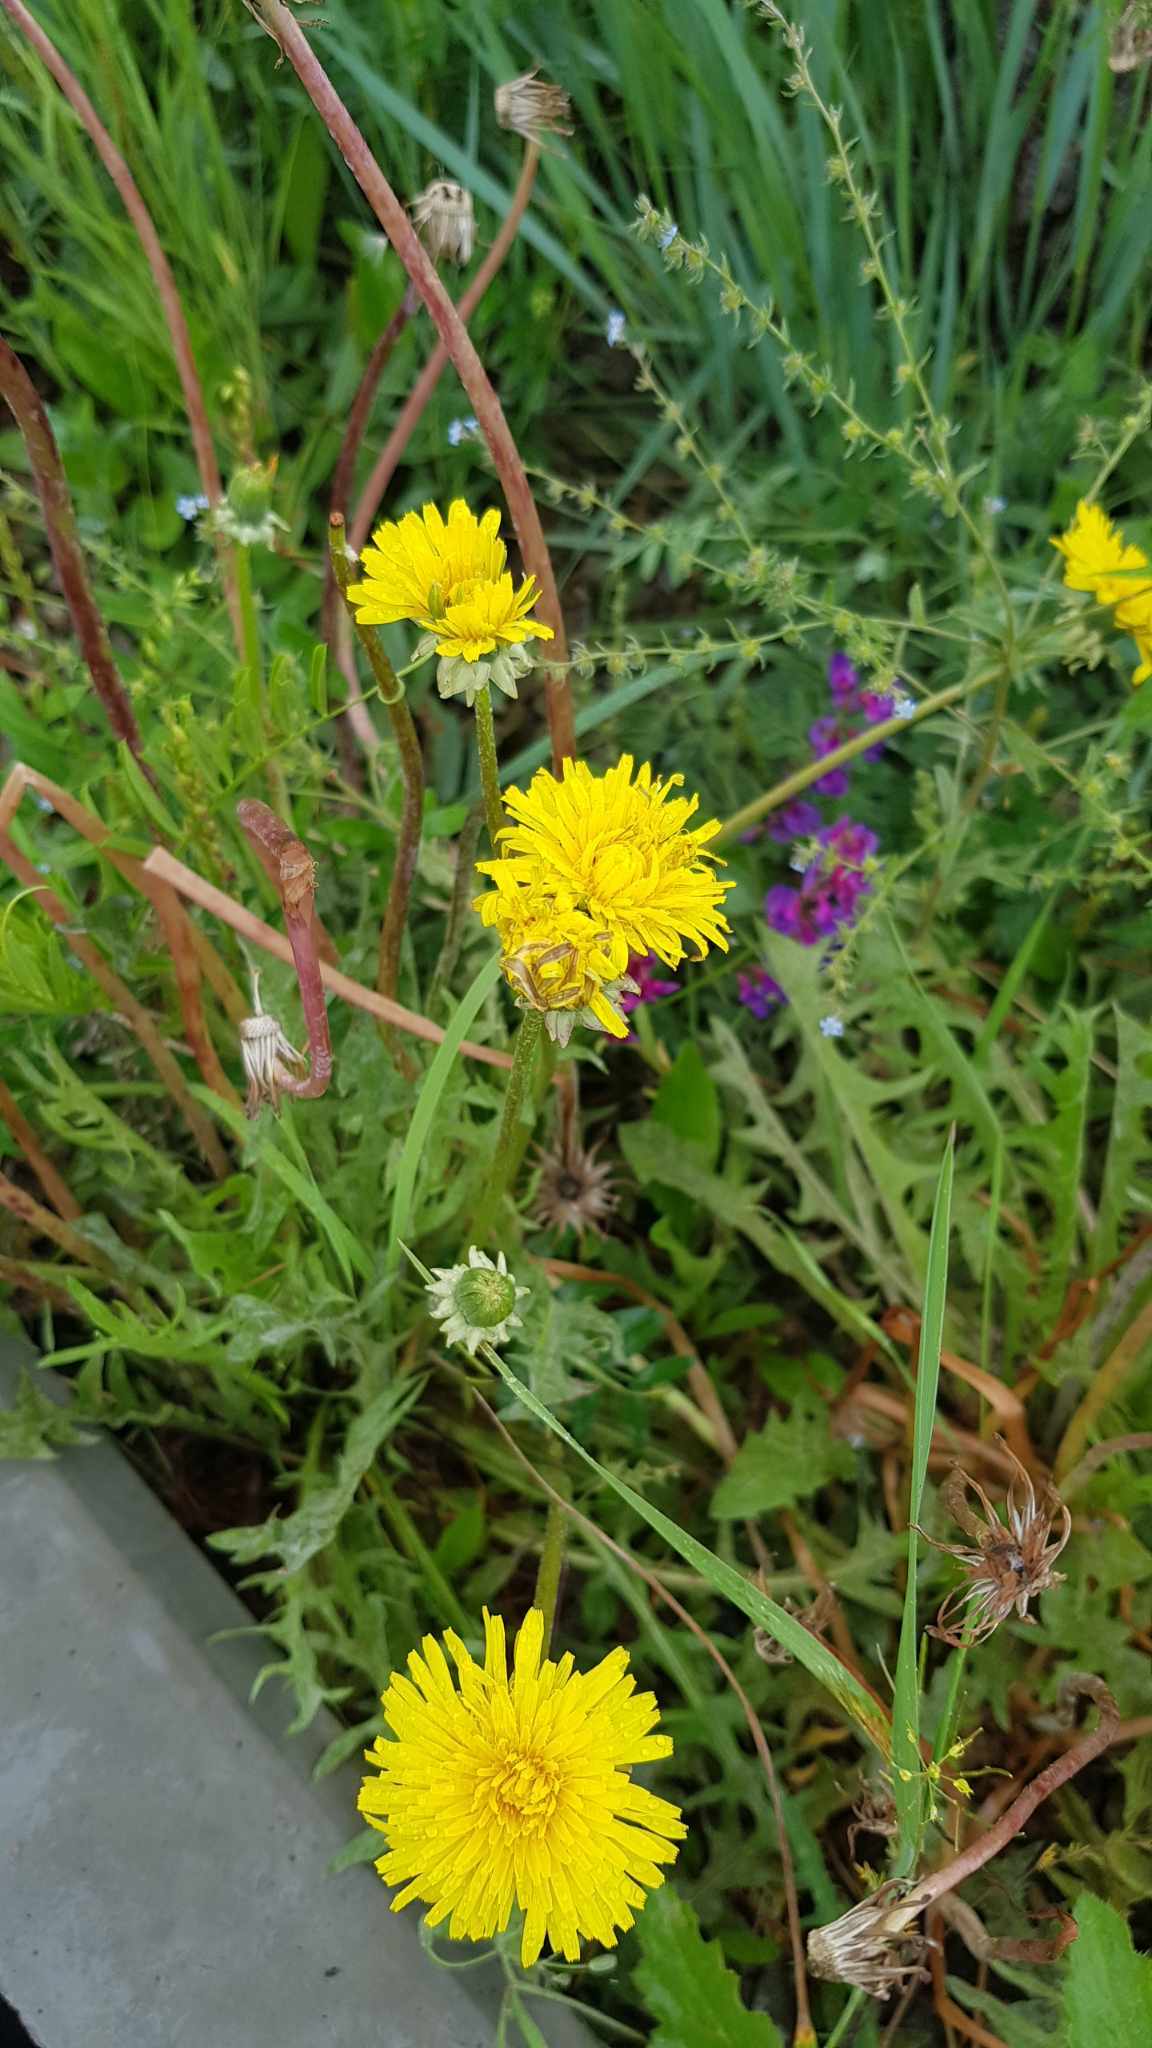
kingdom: Plantae
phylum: Tracheophyta
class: Magnoliopsida
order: Asterales
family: Asteraceae
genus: Taraxacum
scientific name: Taraxacum officinale
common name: Common dandelion
